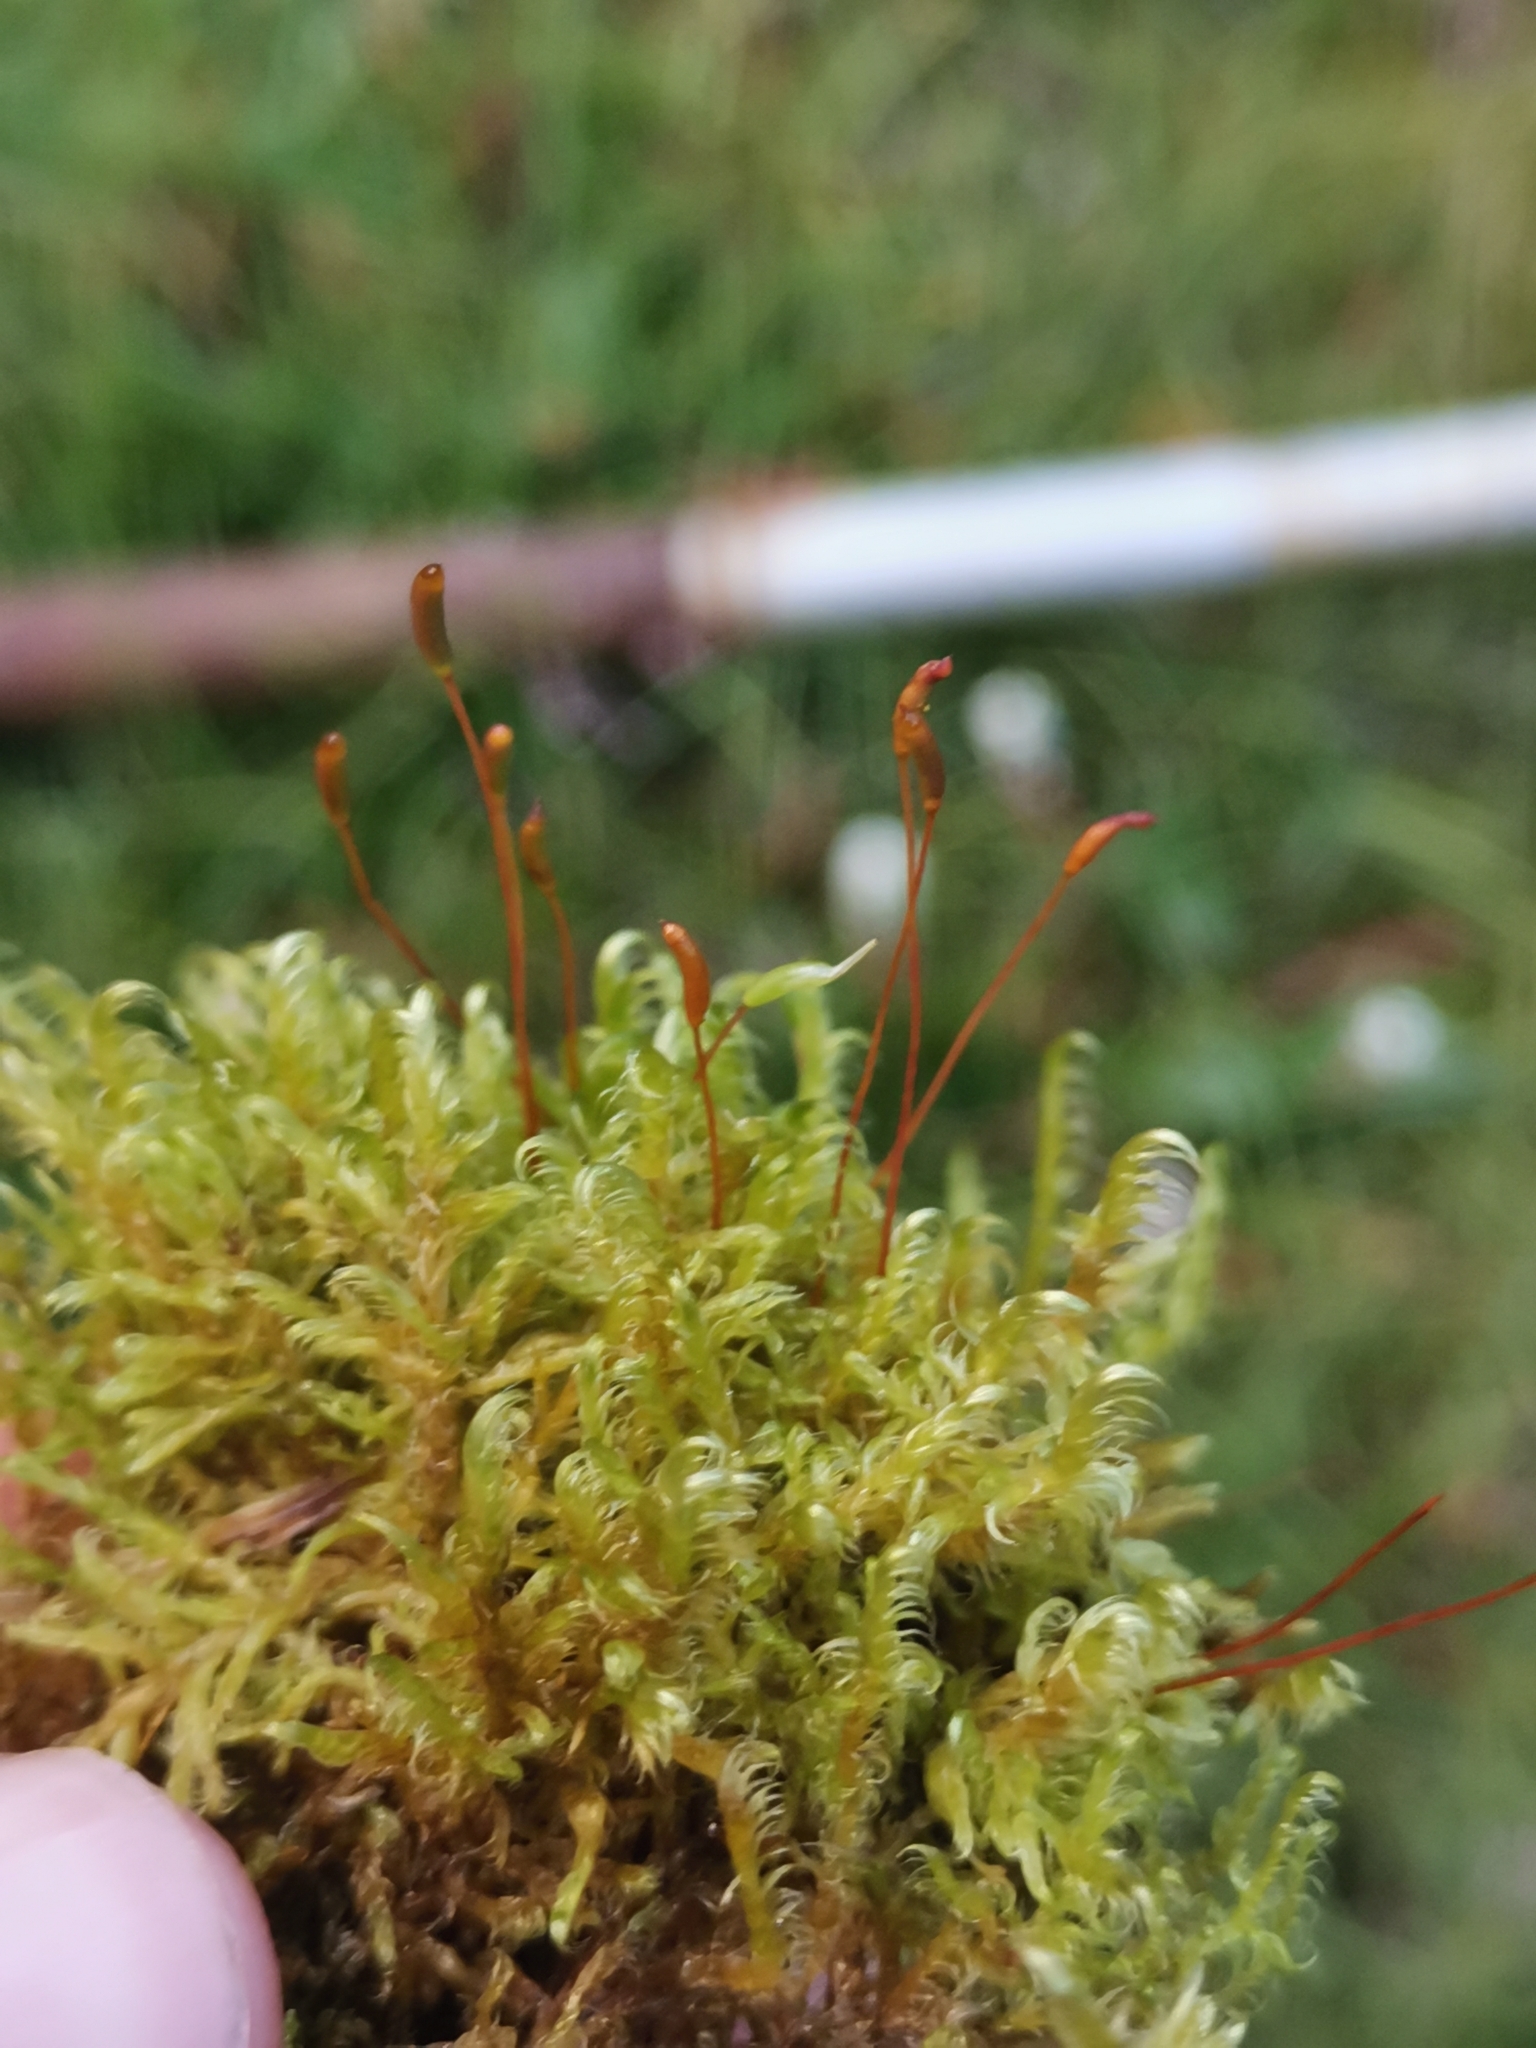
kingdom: Plantae
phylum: Bryophyta
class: Bryopsida
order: Hypnales
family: Scorpidiaceae
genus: Sanionia
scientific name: Sanionia uncinata
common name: Sickle moss
